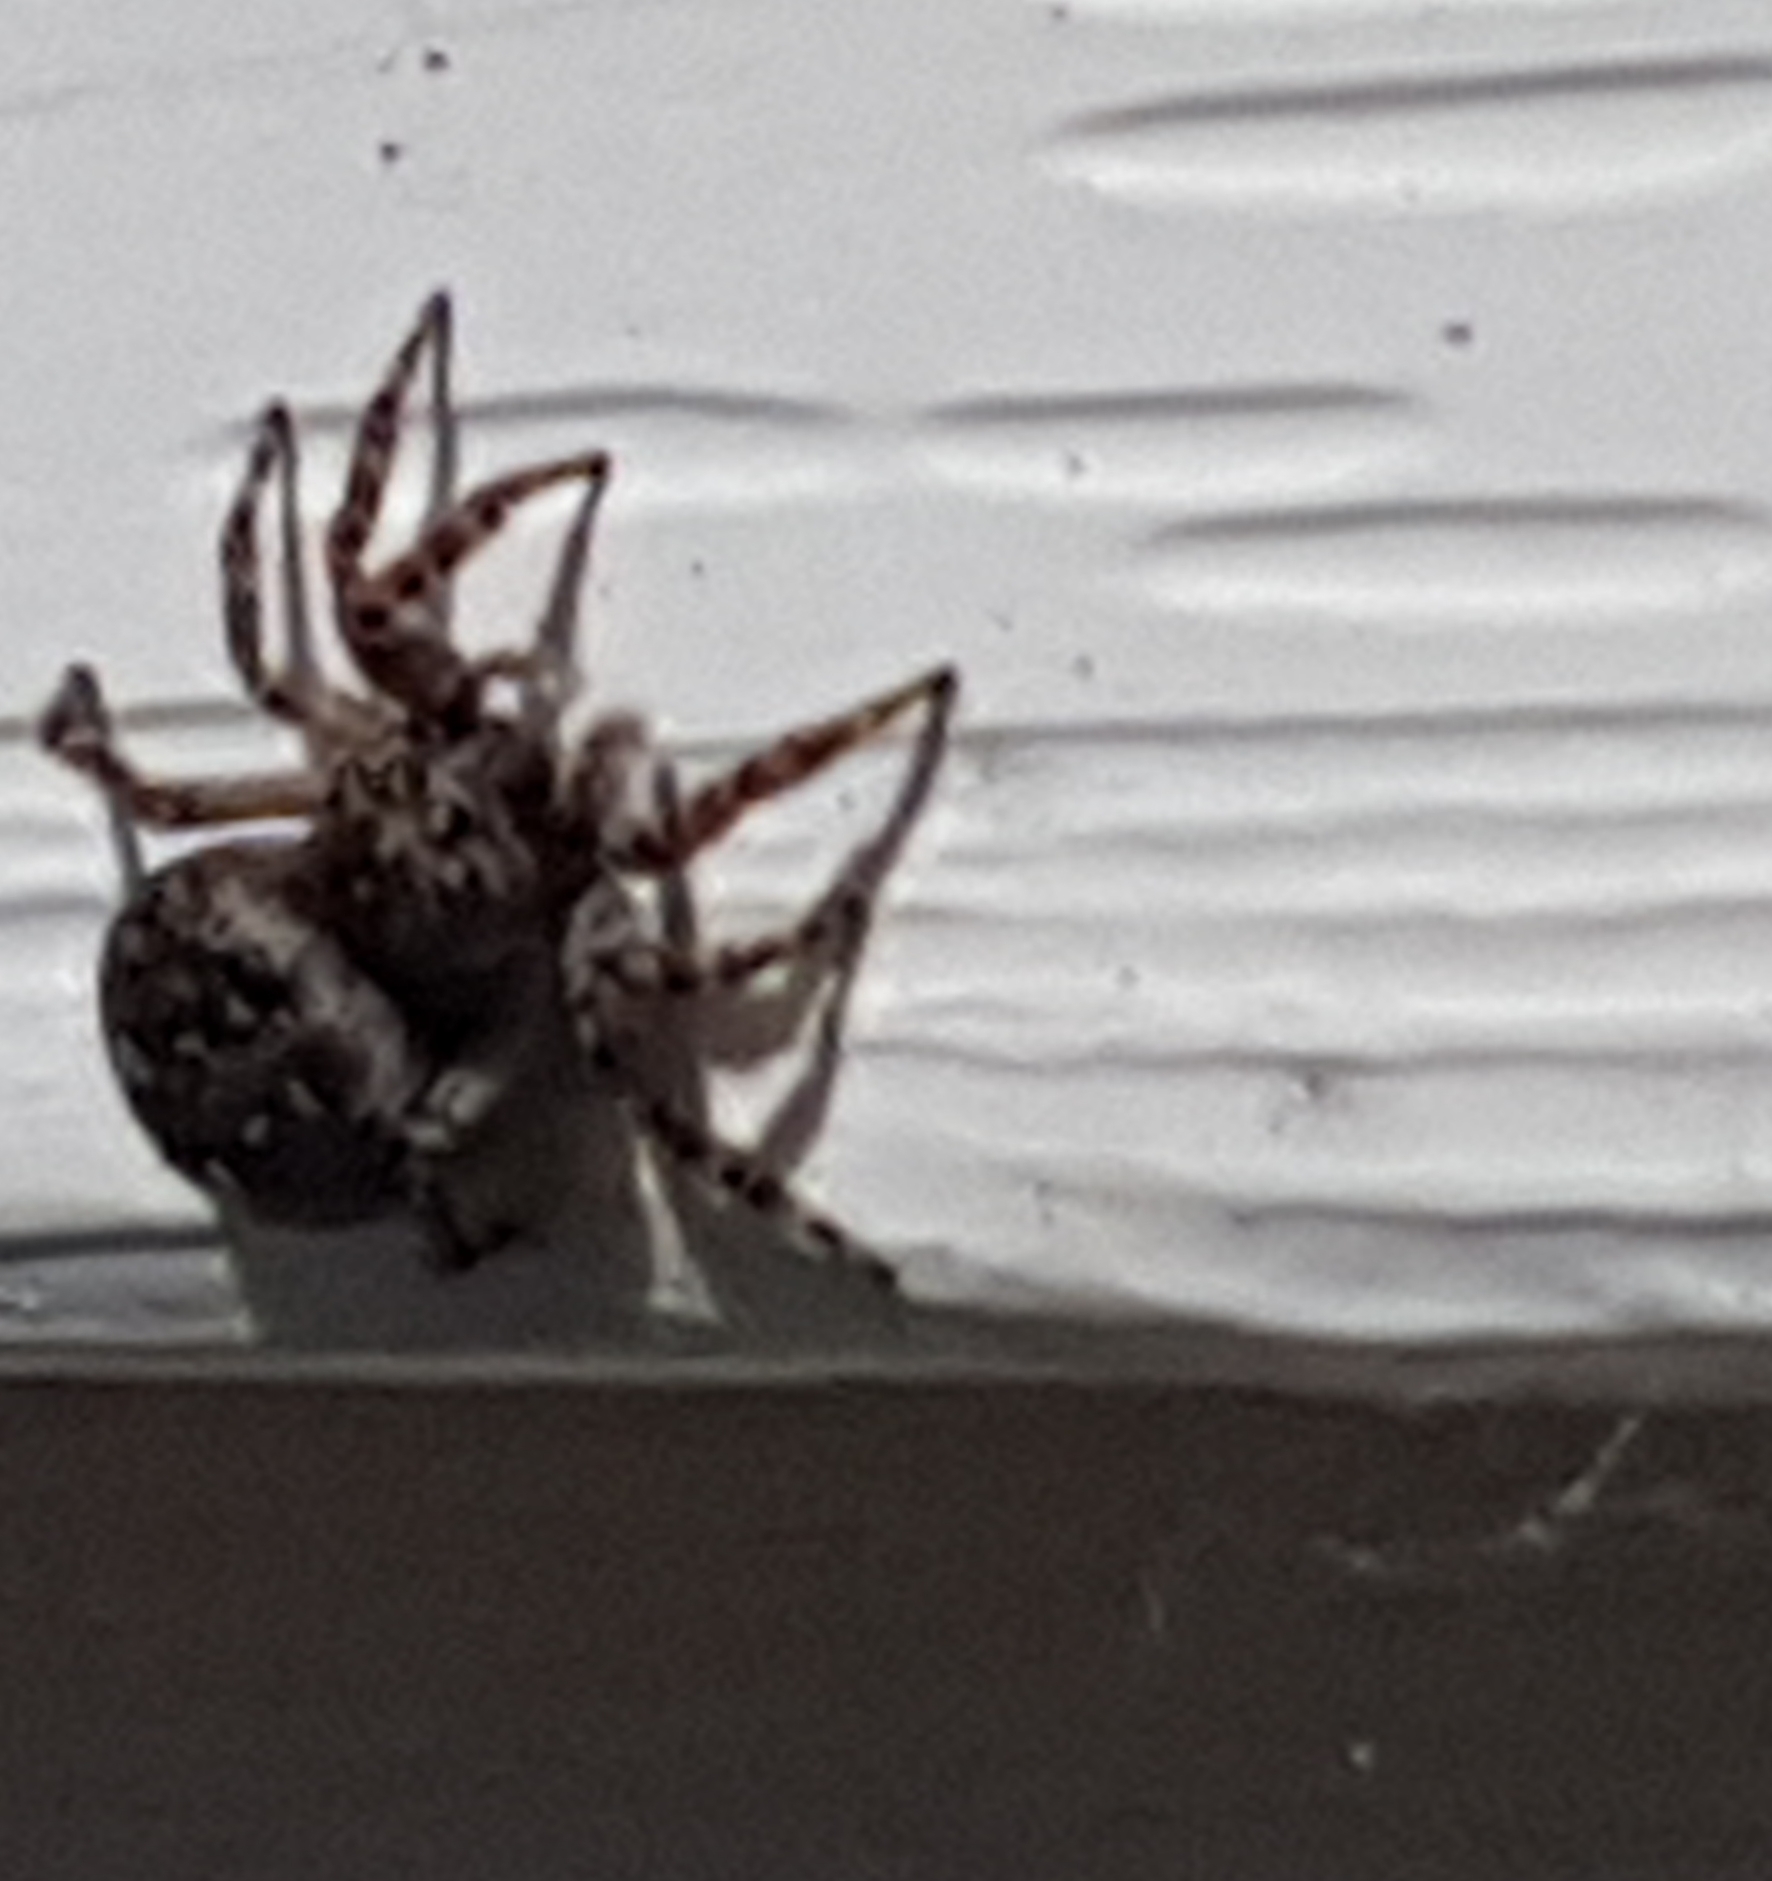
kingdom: Animalia
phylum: Arthropoda
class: Arachnida
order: Araneae
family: Salticidae
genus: Attulus
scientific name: Attulus pubescens
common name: Jumping spider
